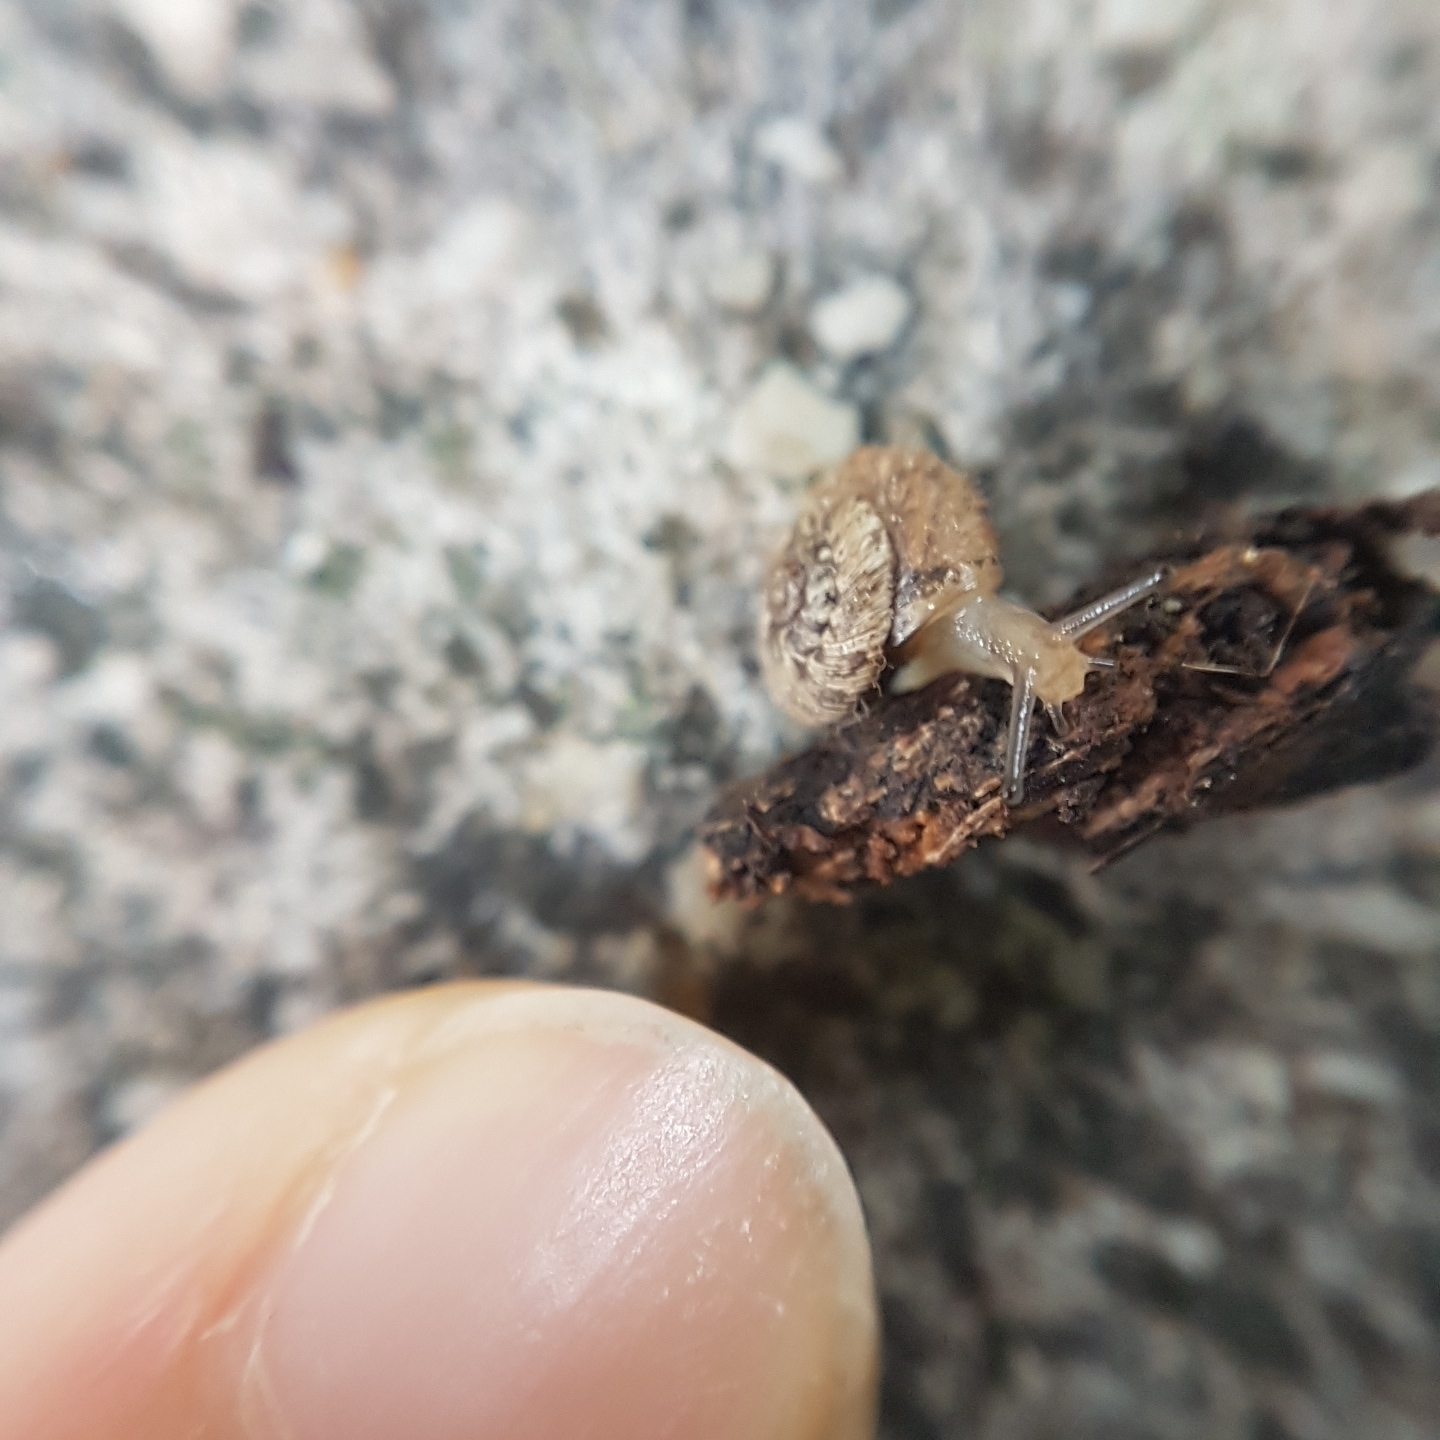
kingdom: Animalia
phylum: Mollusca
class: Gastropoda
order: Stylommatophora
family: Geomitridae
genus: Xerotricha
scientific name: Xerotricha conspurcata
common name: Snail
